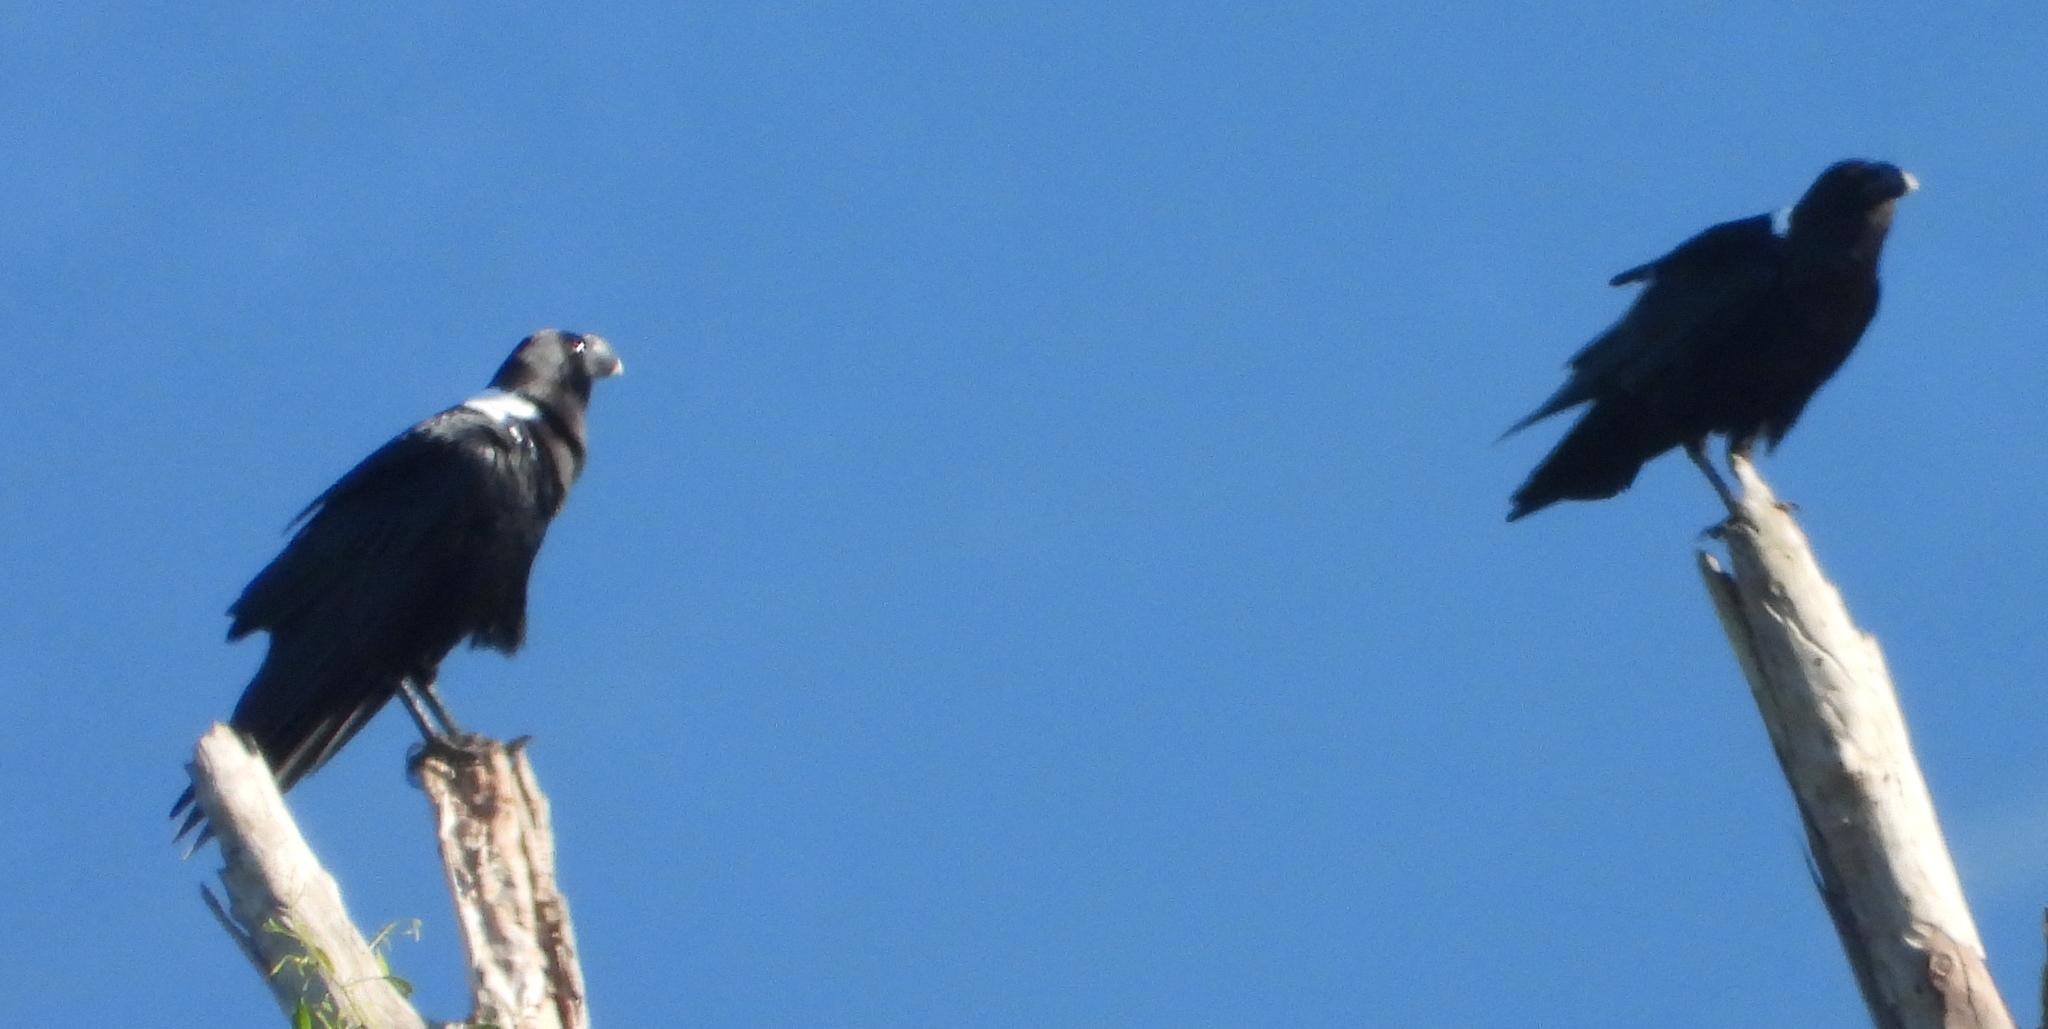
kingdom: Animalia
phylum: Chordata
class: Aves
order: Passeriformes
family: Corvidae
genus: Corvus
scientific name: Corvus albicollis
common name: White-necked raven
